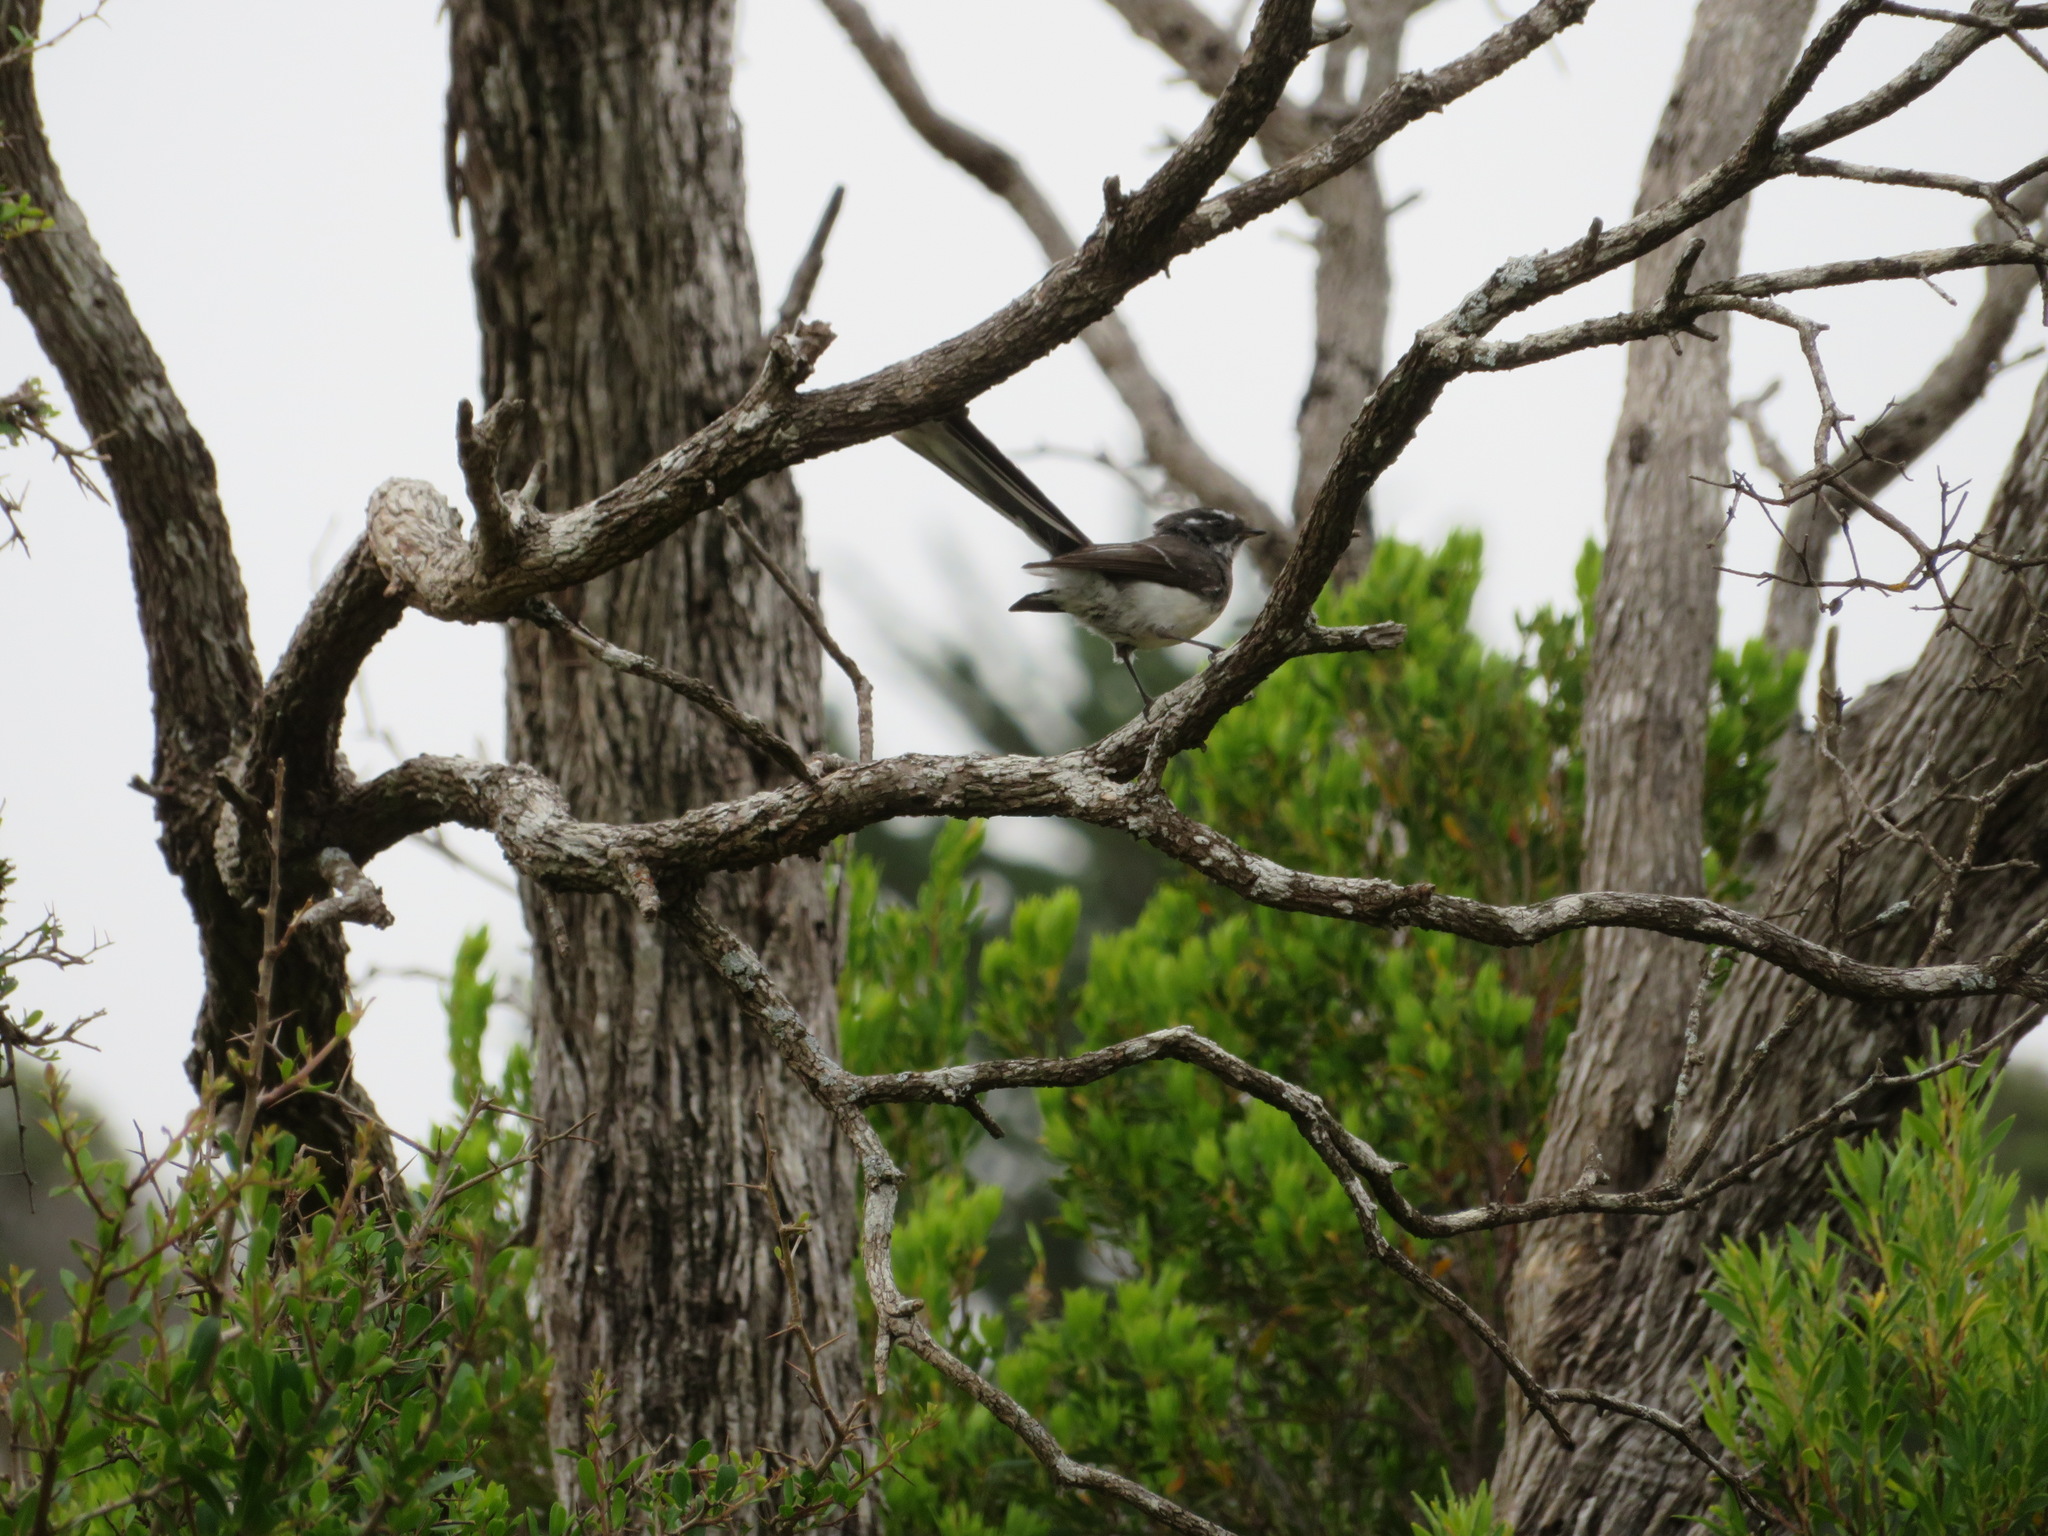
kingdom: Animalia
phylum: Chordata
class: Aves
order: Passeriformes
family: Rhipiduridae
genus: Rhipidura
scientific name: Rhipidura albiscapa
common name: Grey fantail
